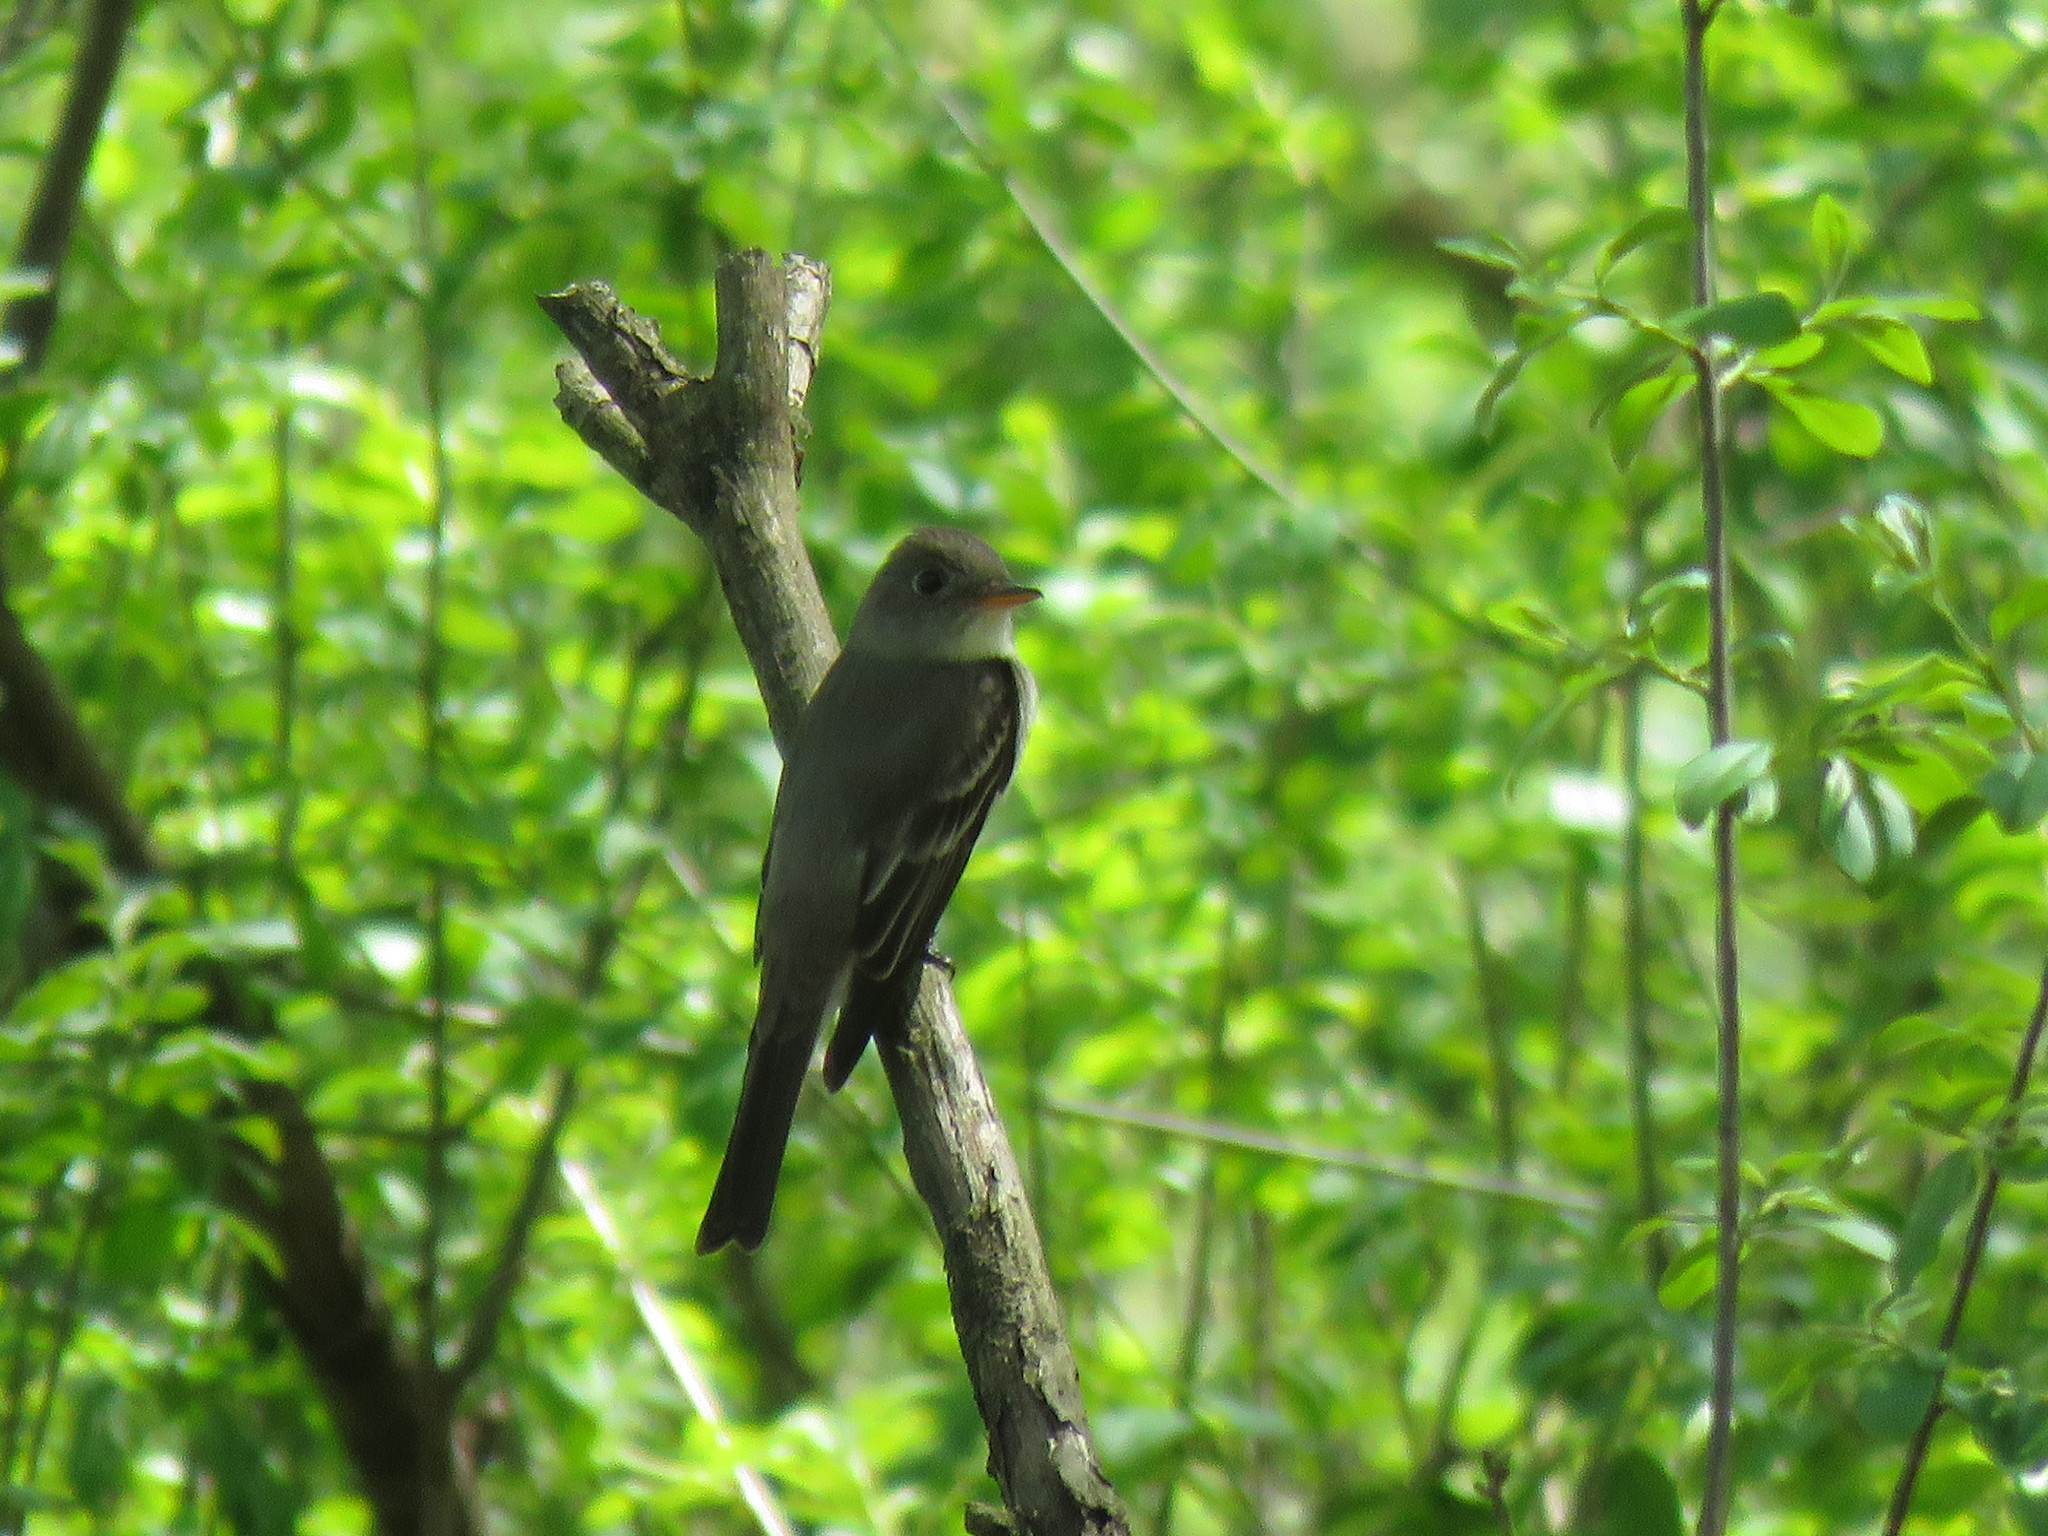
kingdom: Animalia
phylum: Chordata
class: Aves
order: Passeriformes
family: Tyrannidae
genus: Contopus
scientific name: Contopus virens
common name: Eastern wood-pewee
